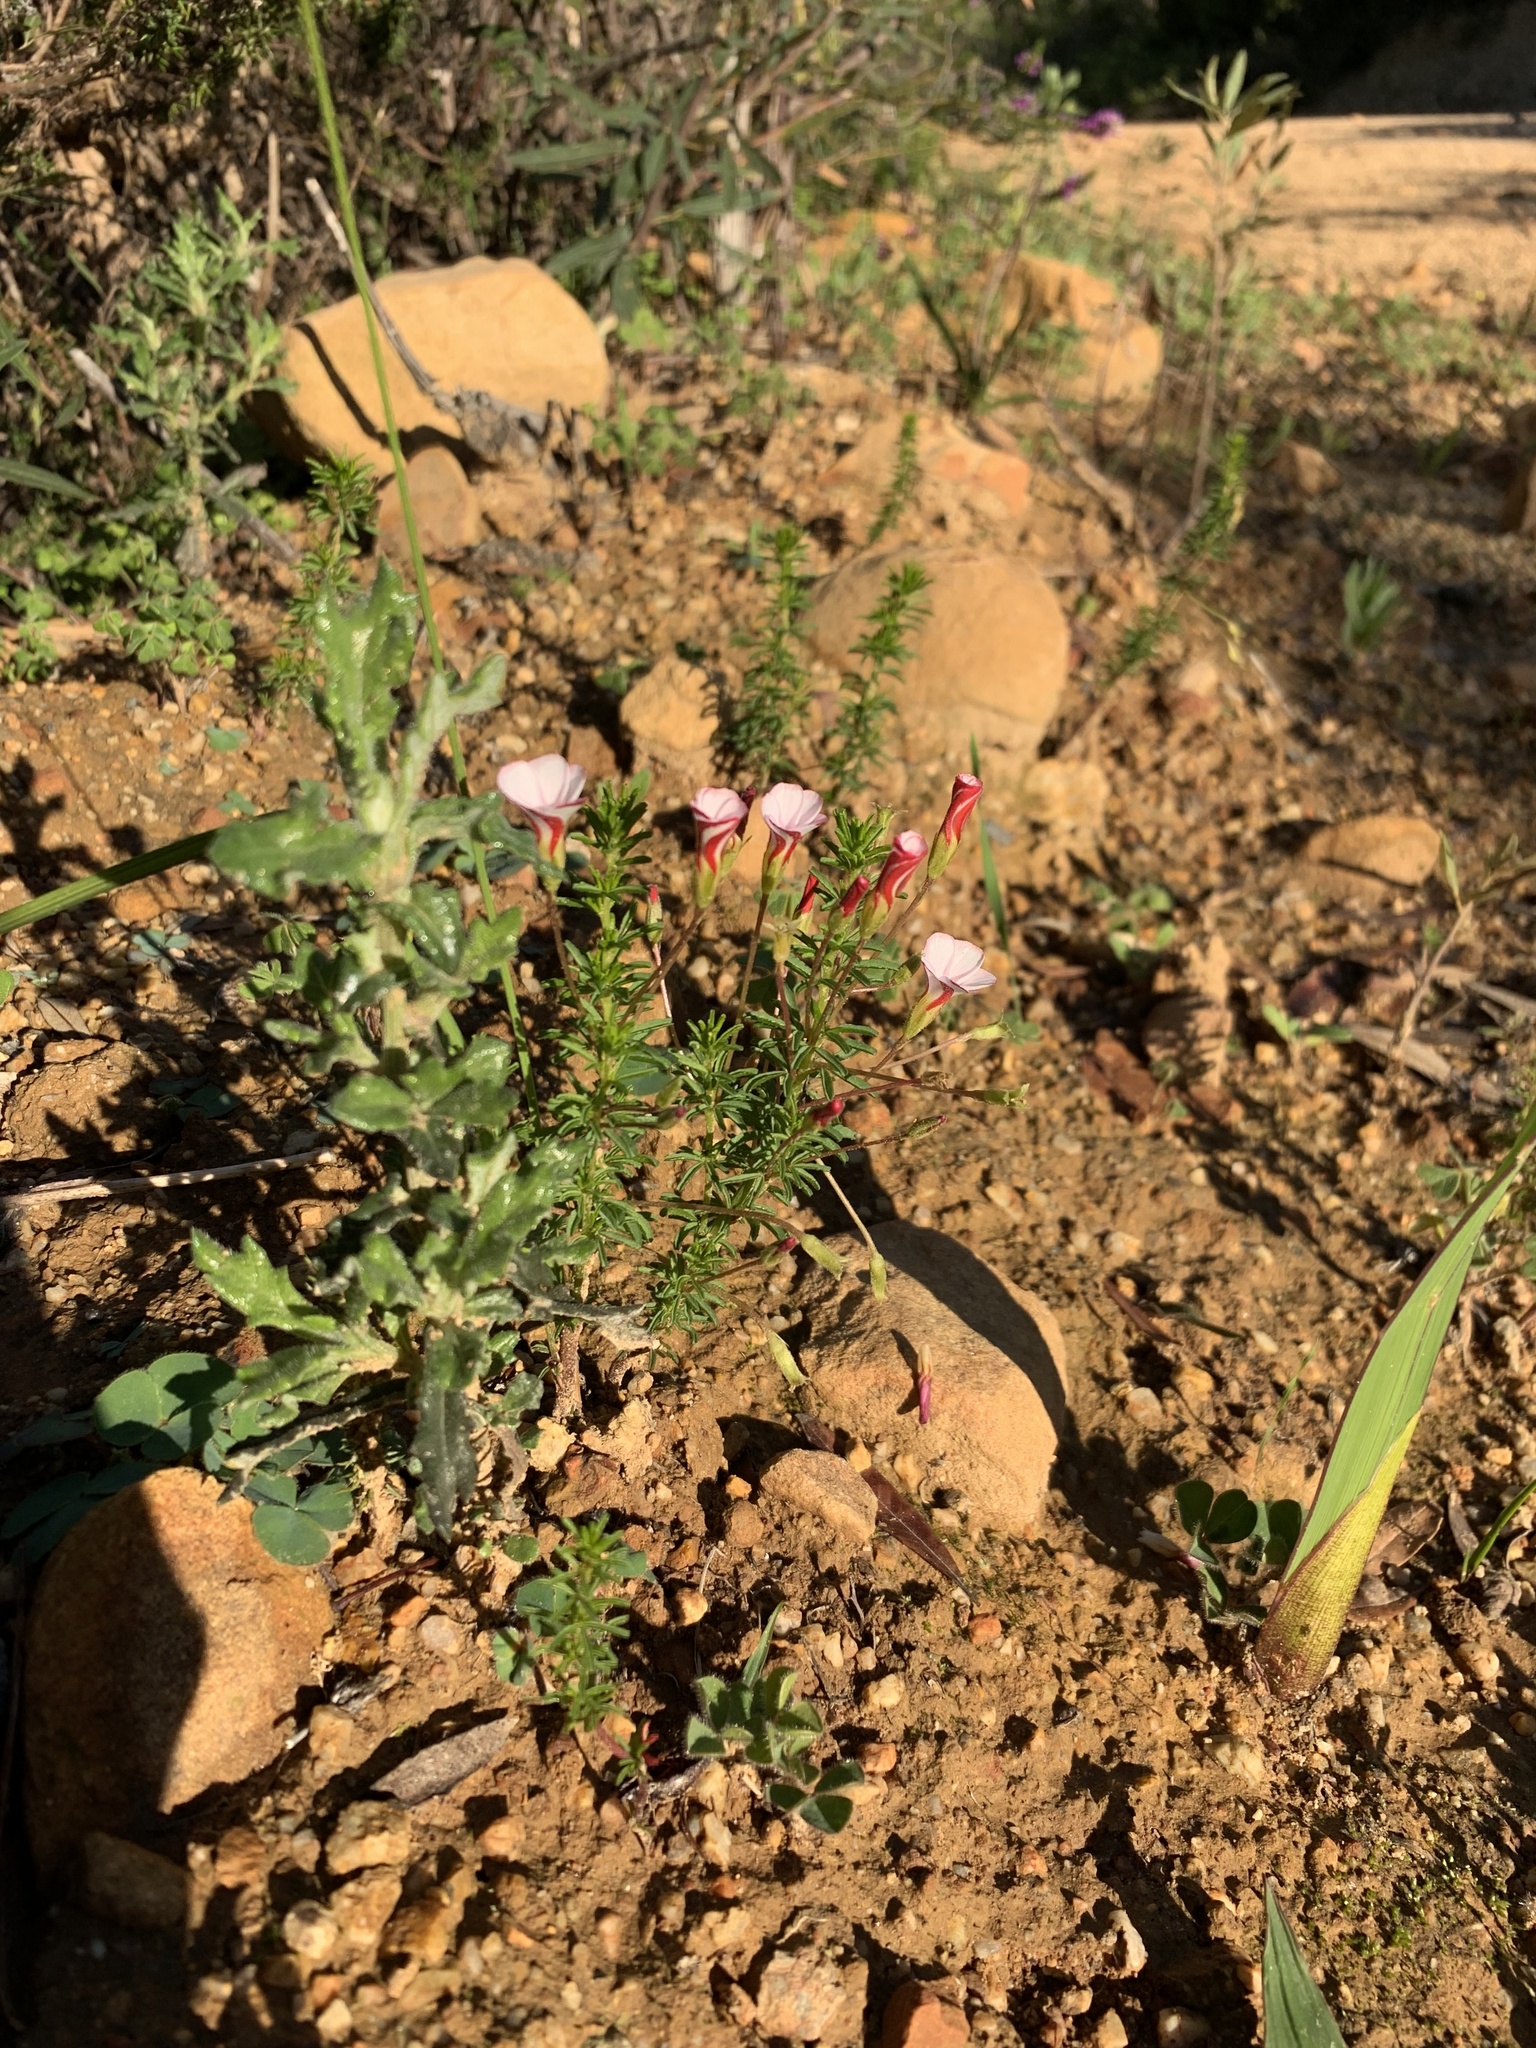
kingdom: Plantae
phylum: Tracheophyta
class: Magnoliopsida
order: Oxalidales
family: Oxalidaceae
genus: Oxalis
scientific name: Oxalis tenuifolia
